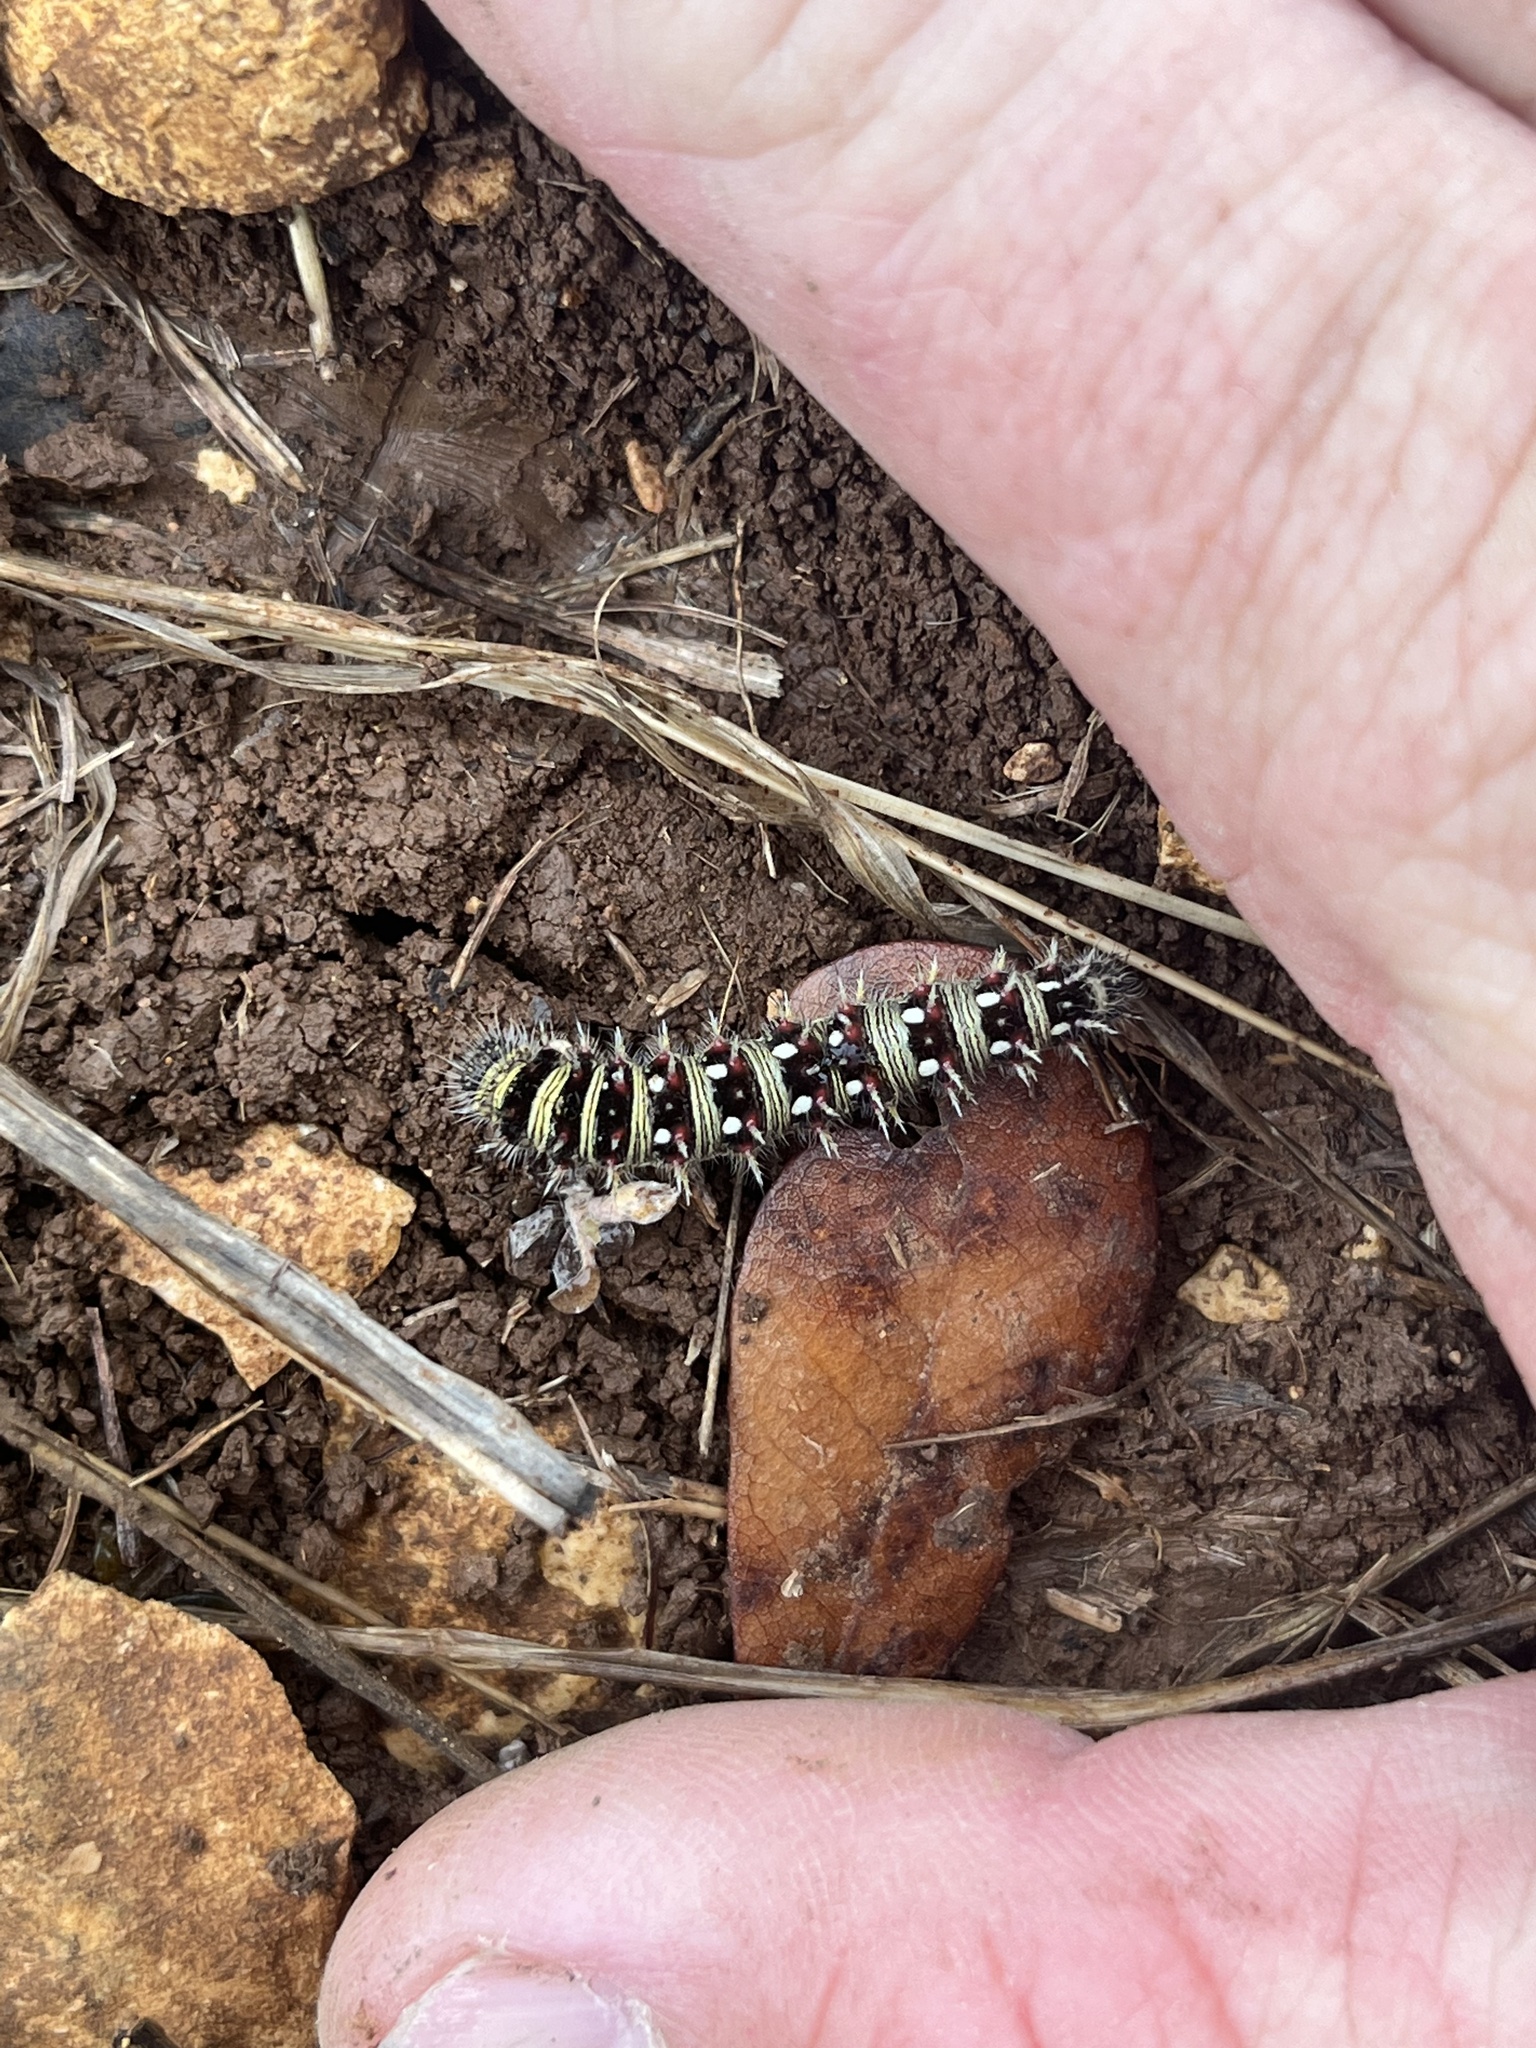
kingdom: Animalia
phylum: Arthropoda
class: Insecta
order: Lepidoptera
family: Nymphalidae
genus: Vanessa
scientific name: Vanessa virginiensis
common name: American lady
